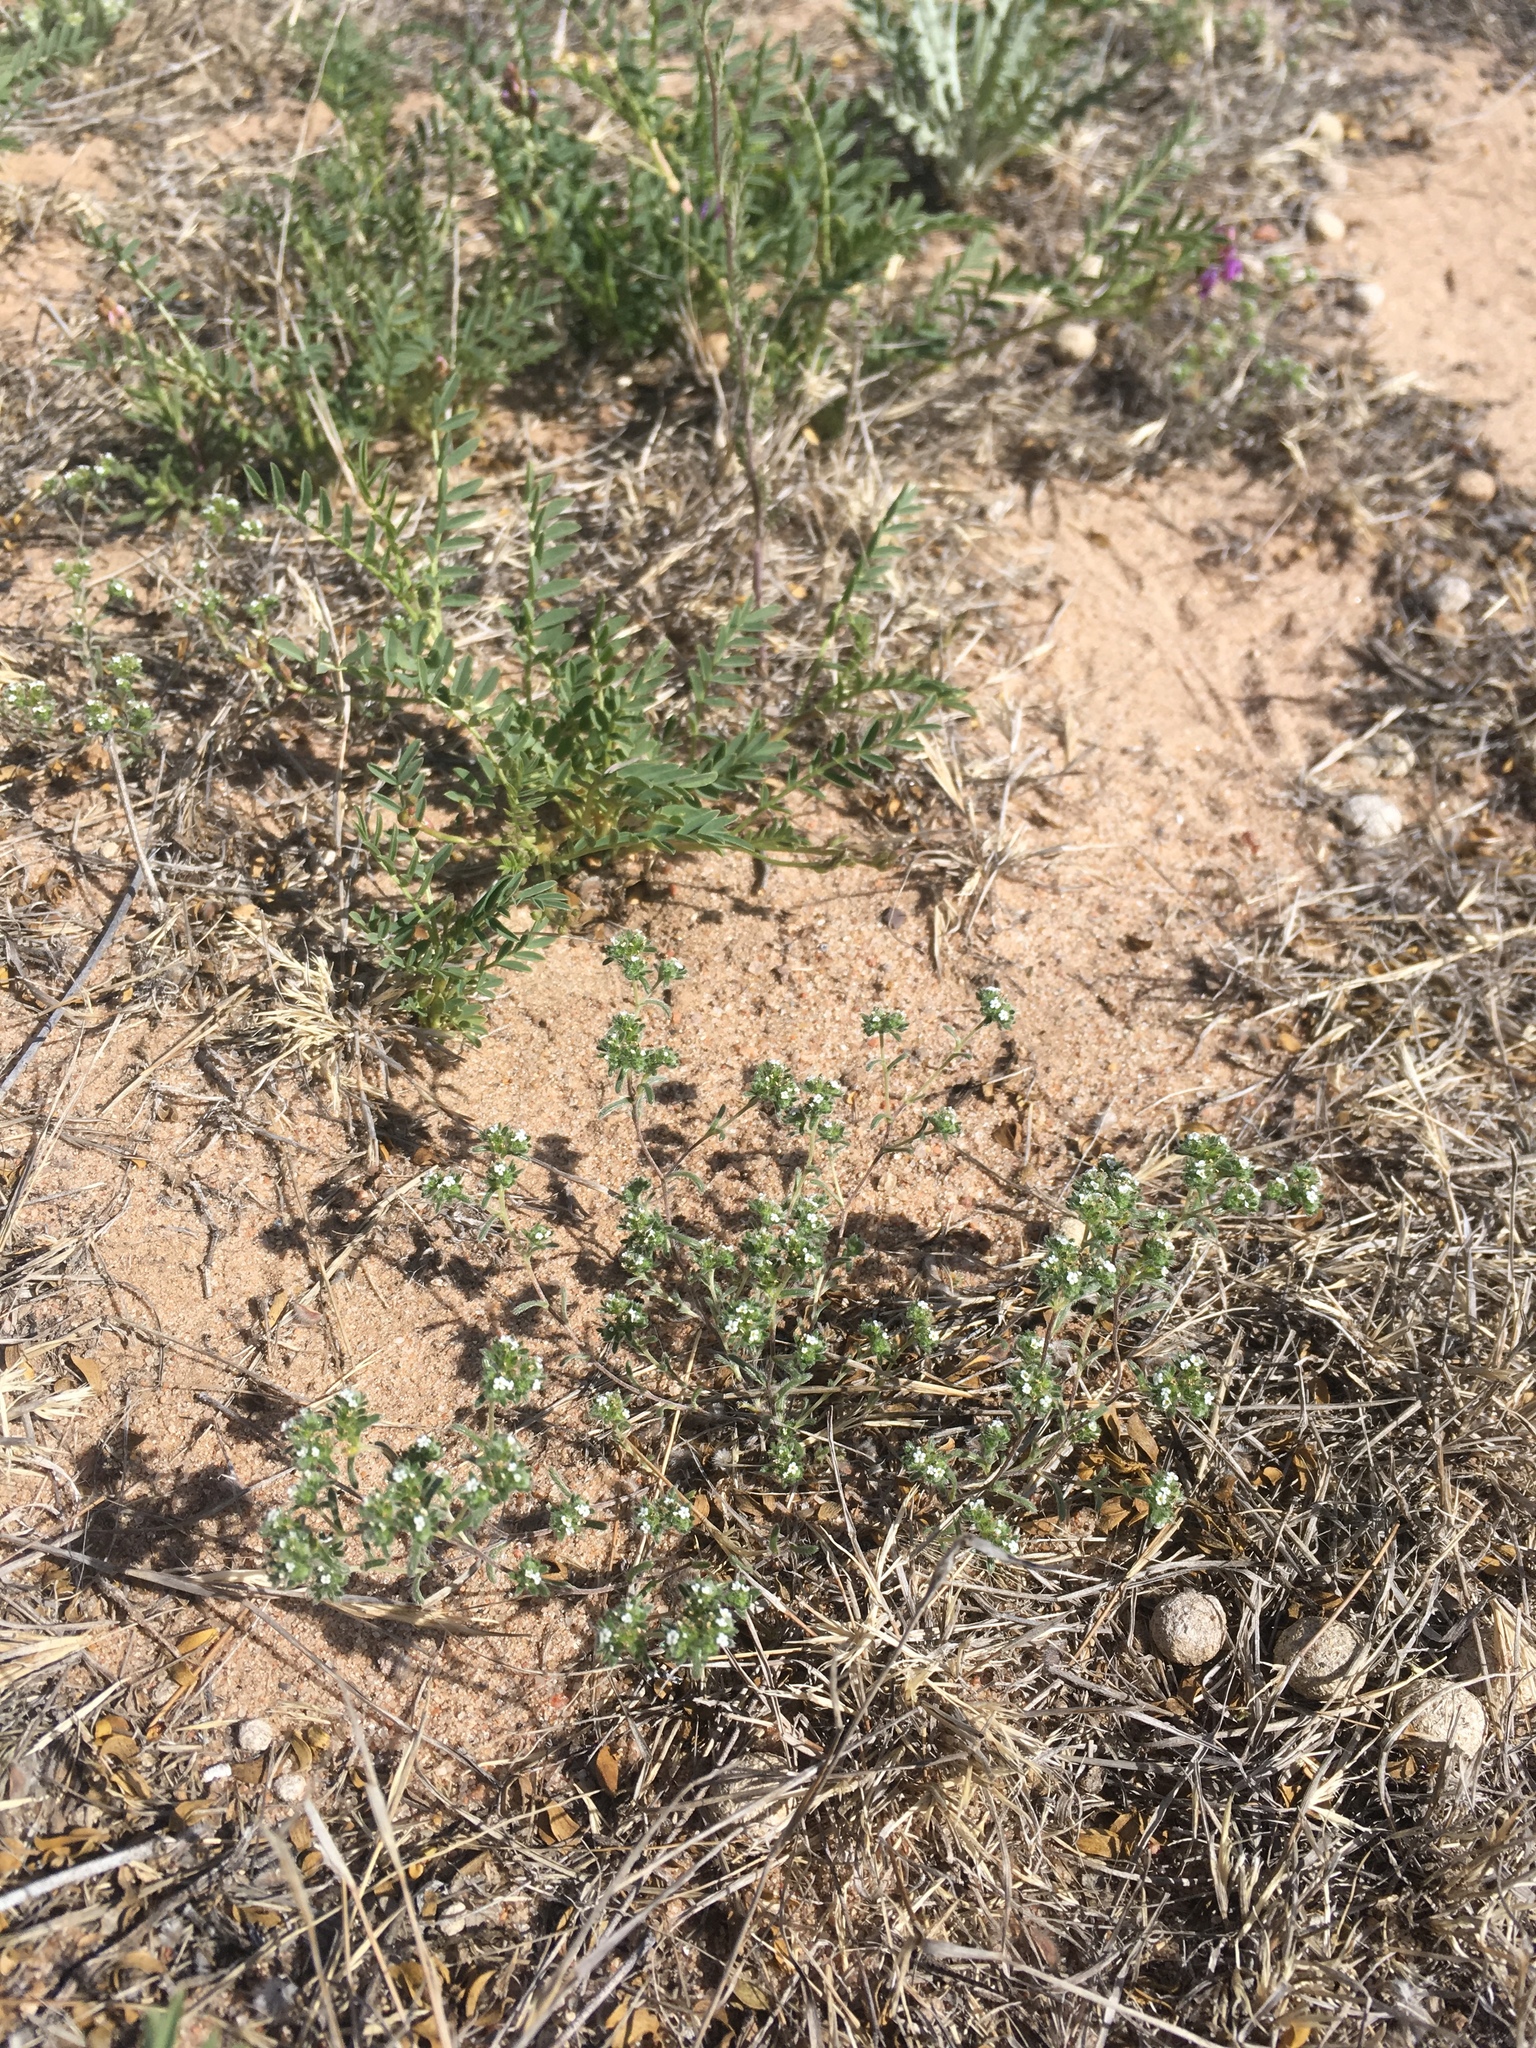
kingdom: Plantae
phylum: Tracheophyta
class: Magnoliopsida
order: Boraginales
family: Boraginaceae
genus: Eremocarya
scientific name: Eremocarya micrantha
